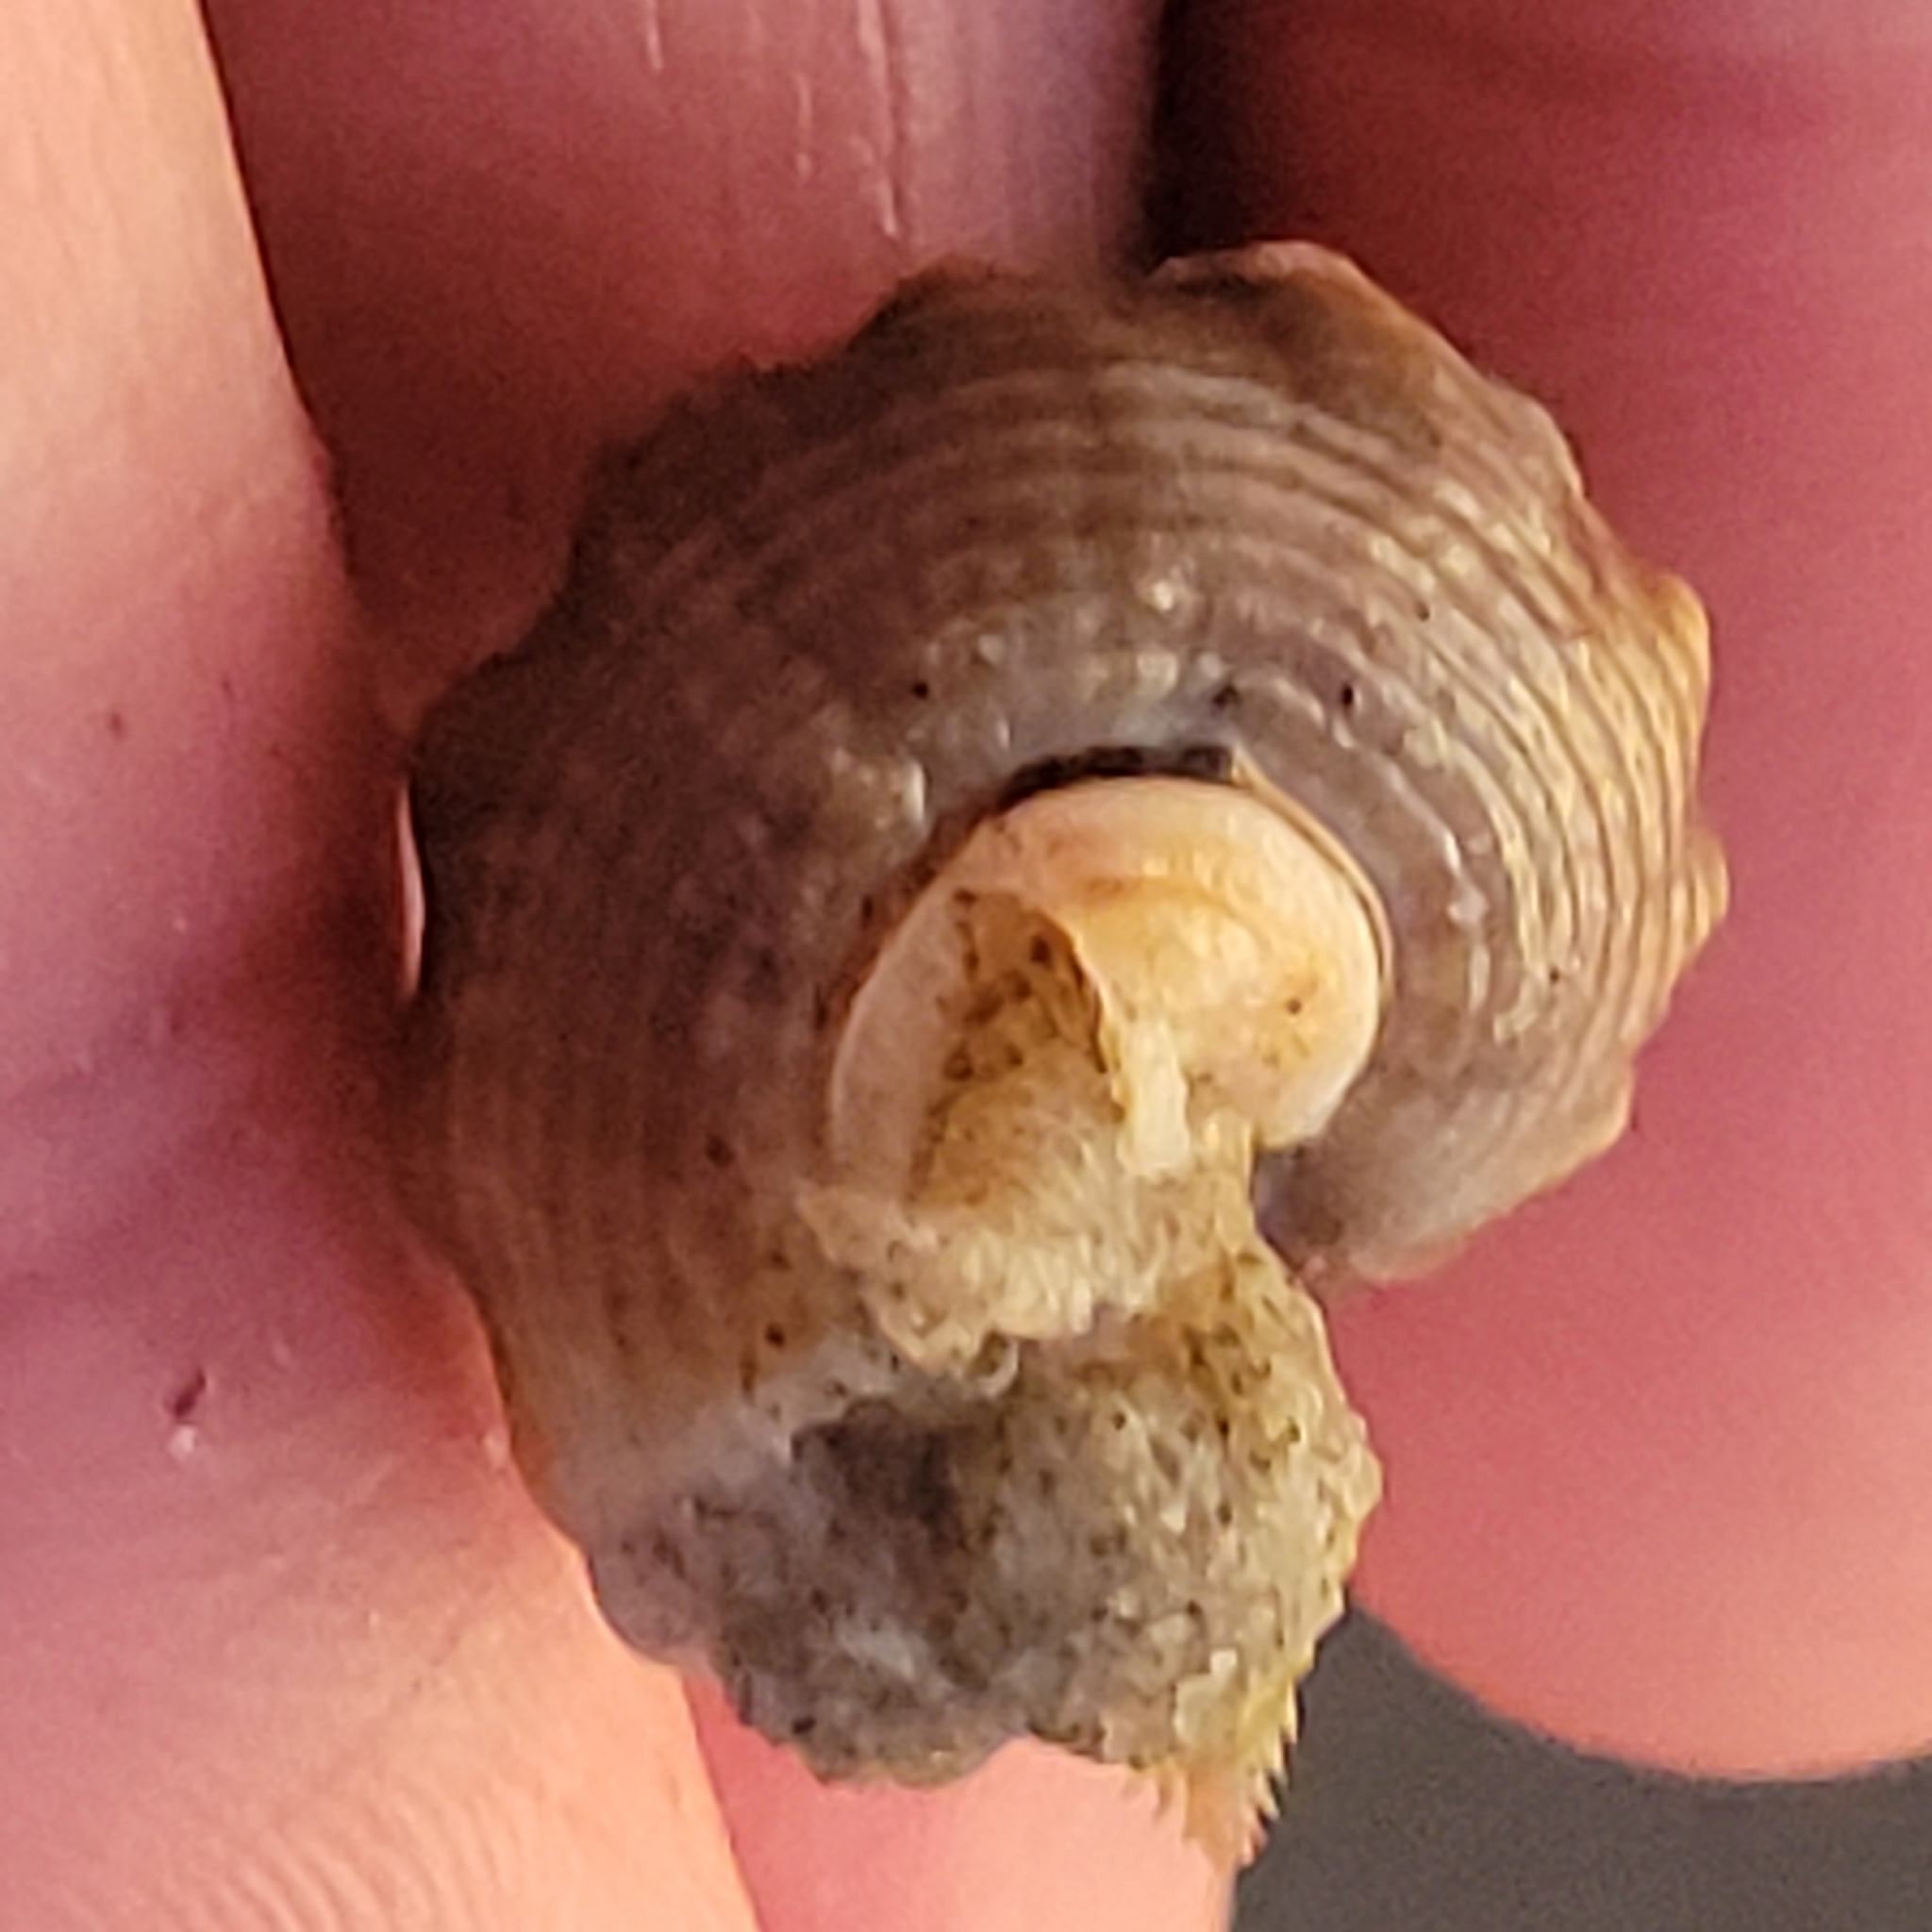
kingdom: Animalia
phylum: Mollusca
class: Gastropoda
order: Neogastropoda
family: Nassariidae
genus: Caesia
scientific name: Caesia fossata
